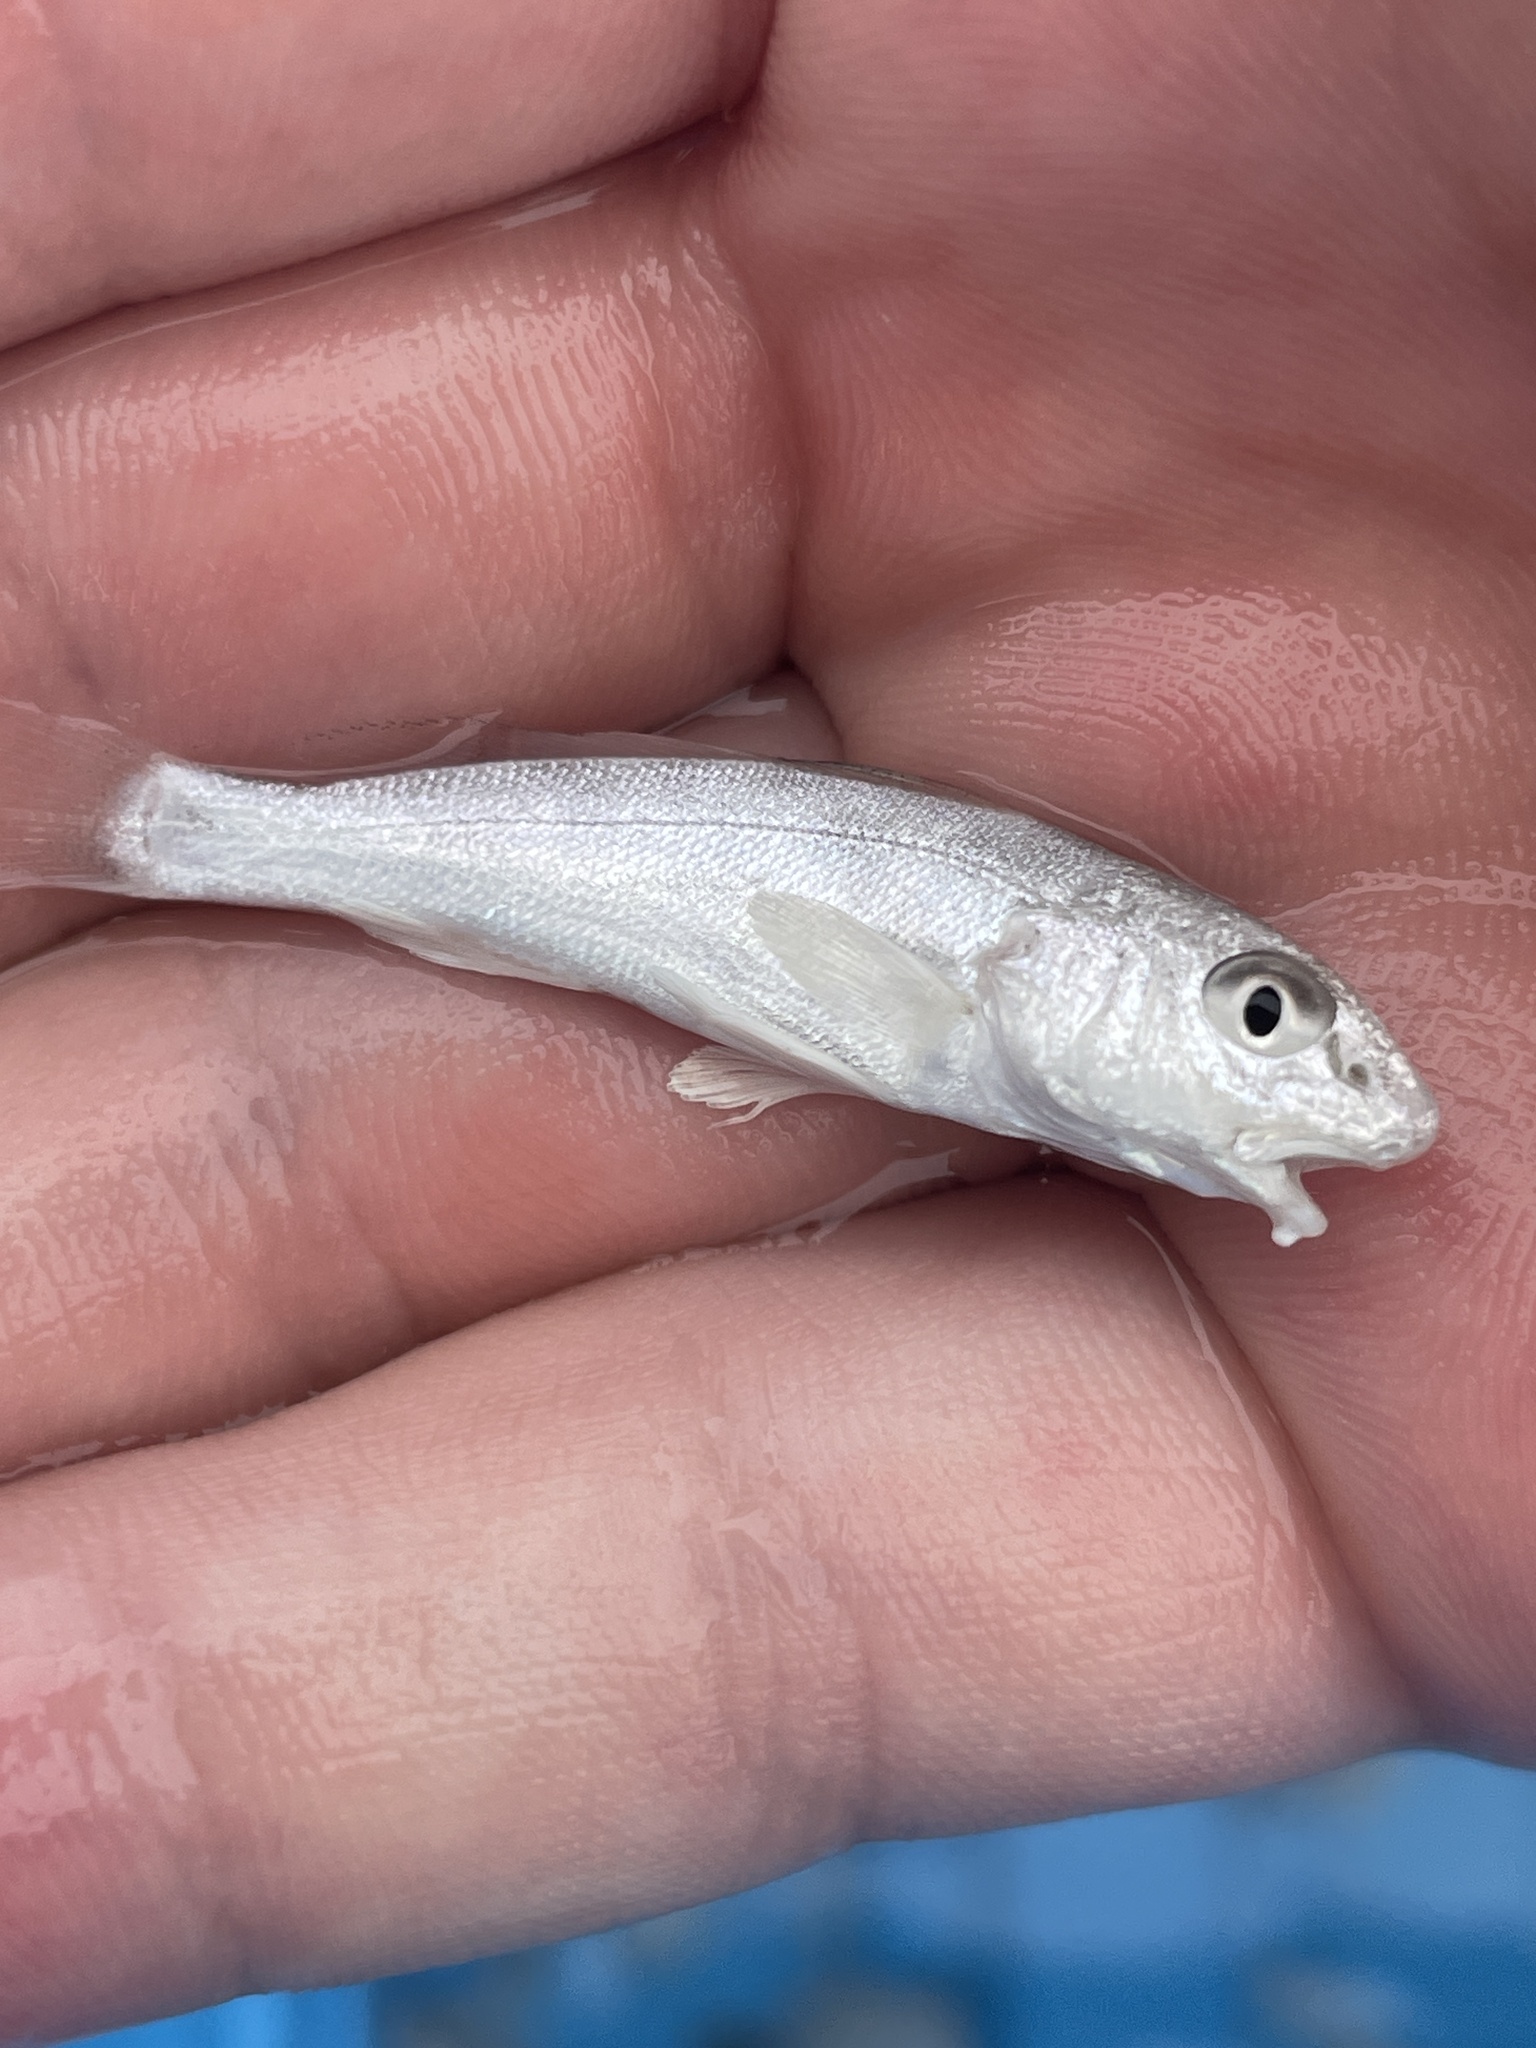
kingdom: Animalia
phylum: Chordata
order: Perciformes
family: Sciaenidae
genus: Menticirrhus
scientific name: Menticirrhus littoralis
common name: Gulf kingcroaker
